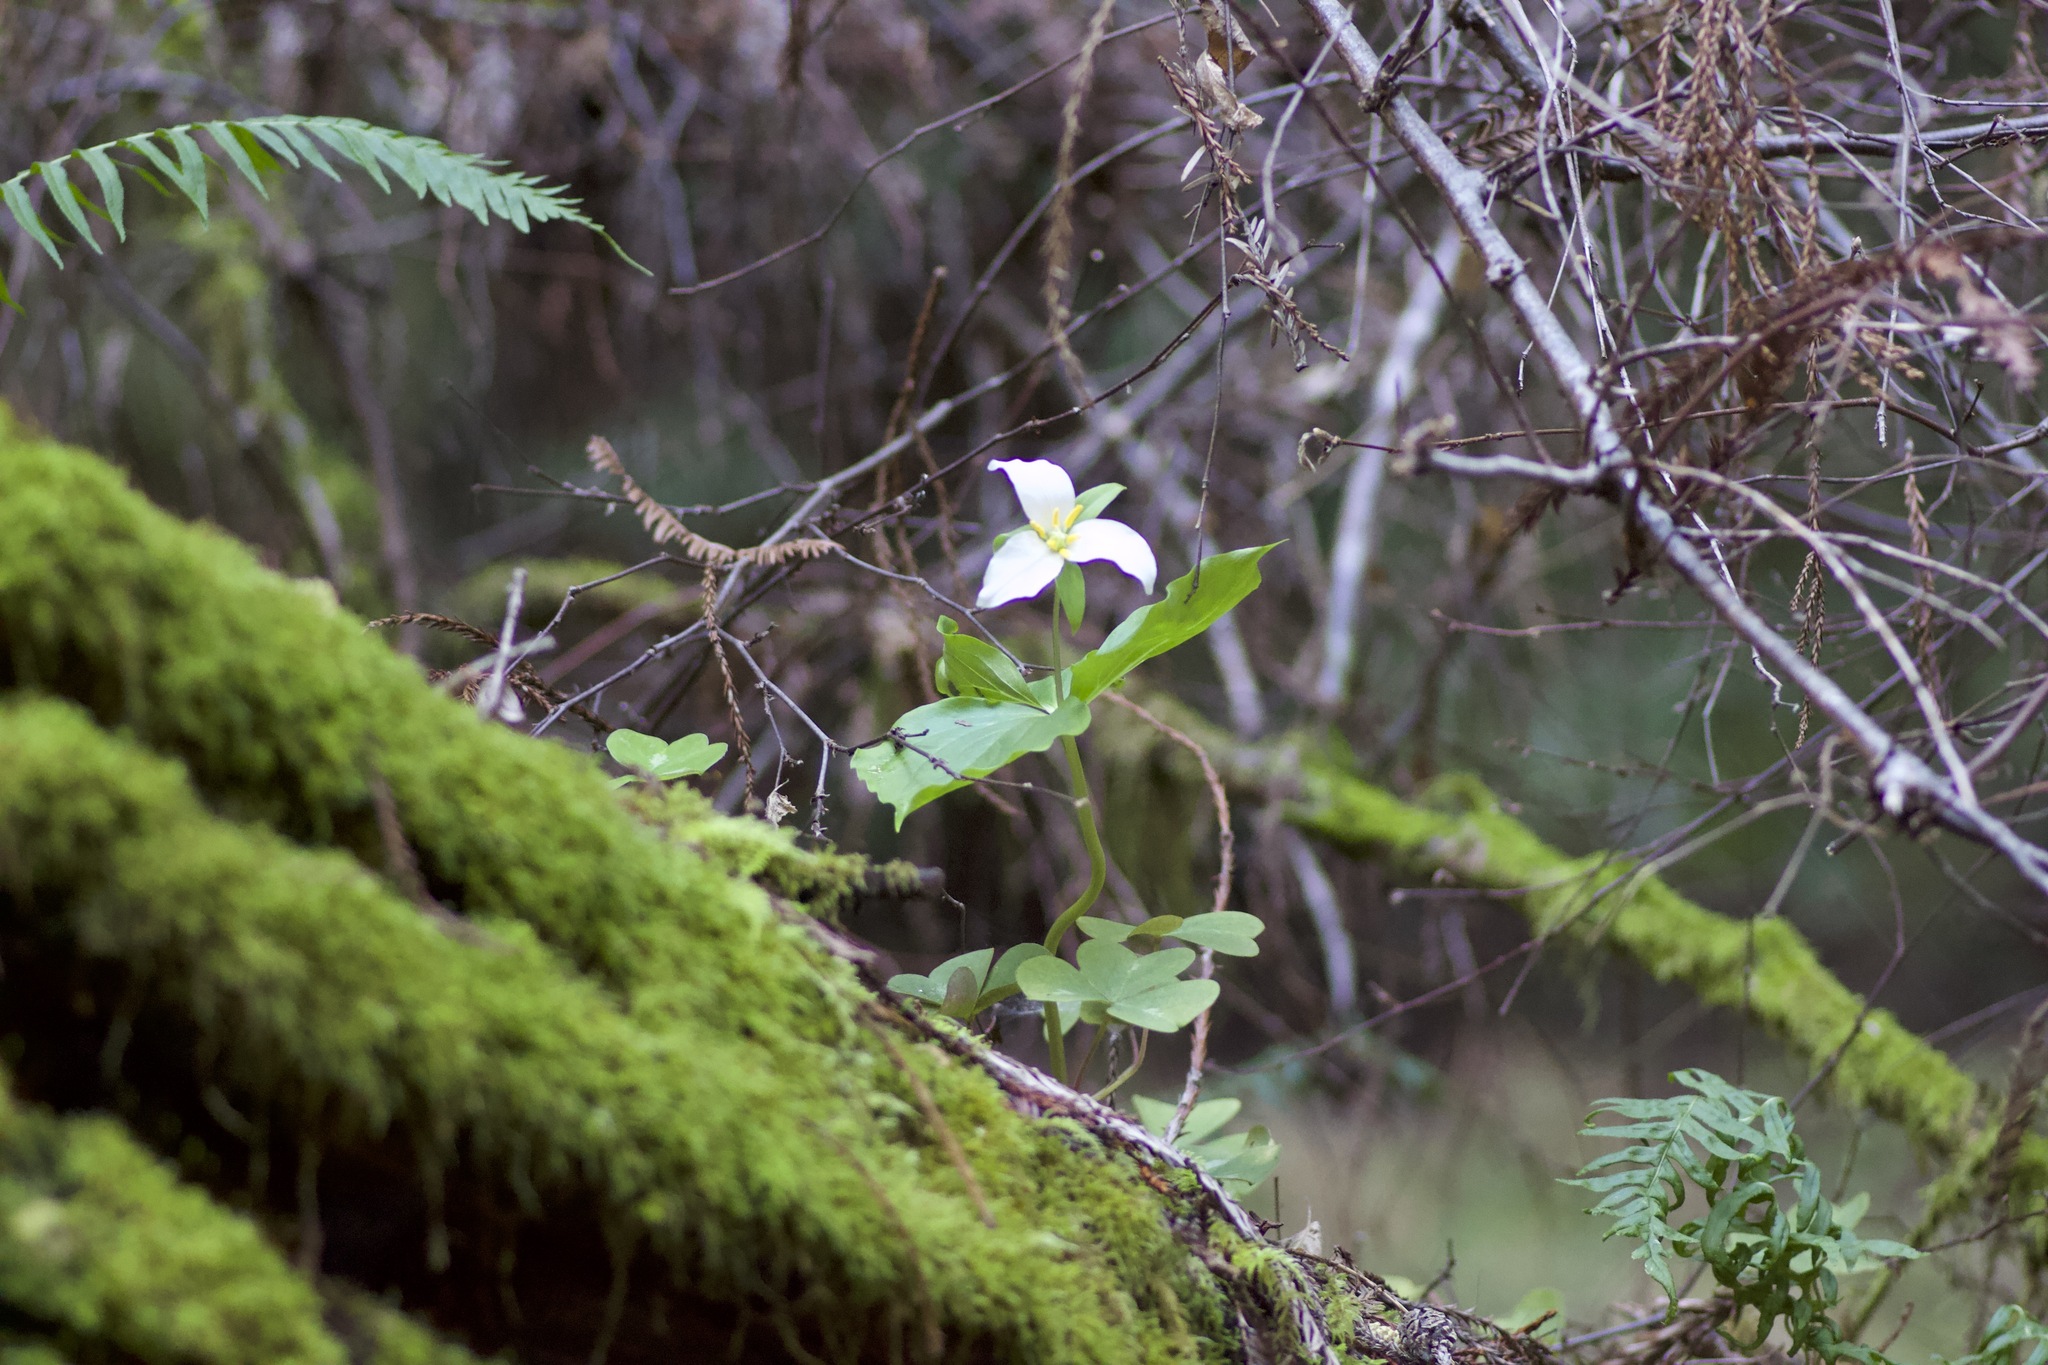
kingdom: Plantae
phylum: Tracheophyta
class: Liliopsida
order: Liliales
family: Melanthiaceae
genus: Trillium
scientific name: Trillium ovatum
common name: Pacific trillium
